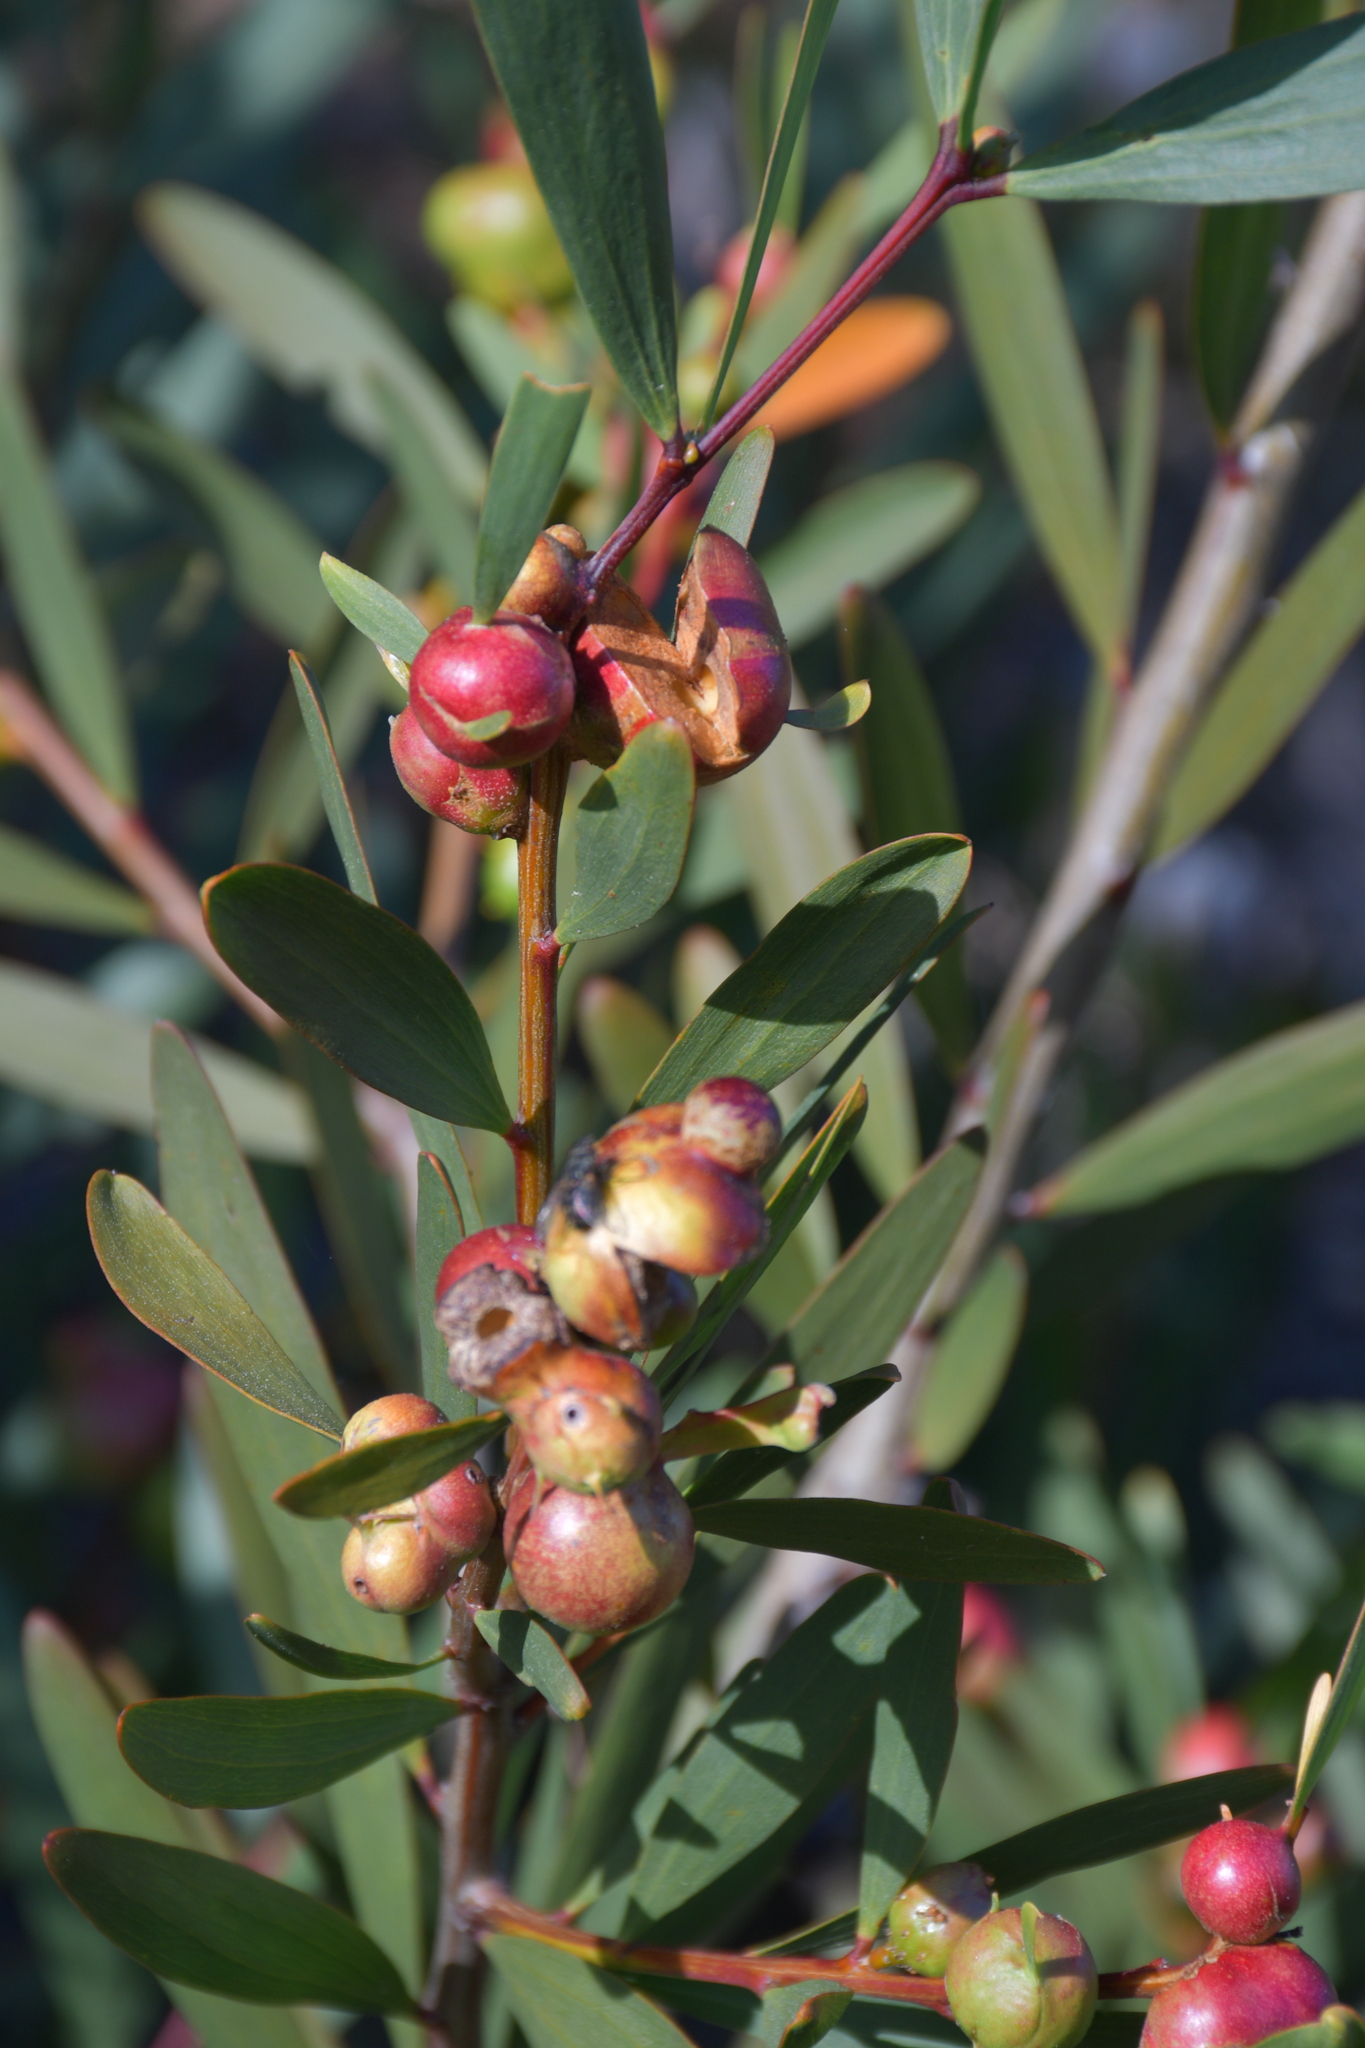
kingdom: Animalia
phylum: Arthropoda
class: Insecta
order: Hymenoptera
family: Pteromalidae
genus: Trichilogaster
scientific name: Trichilogaster acaciaelongifoliae
